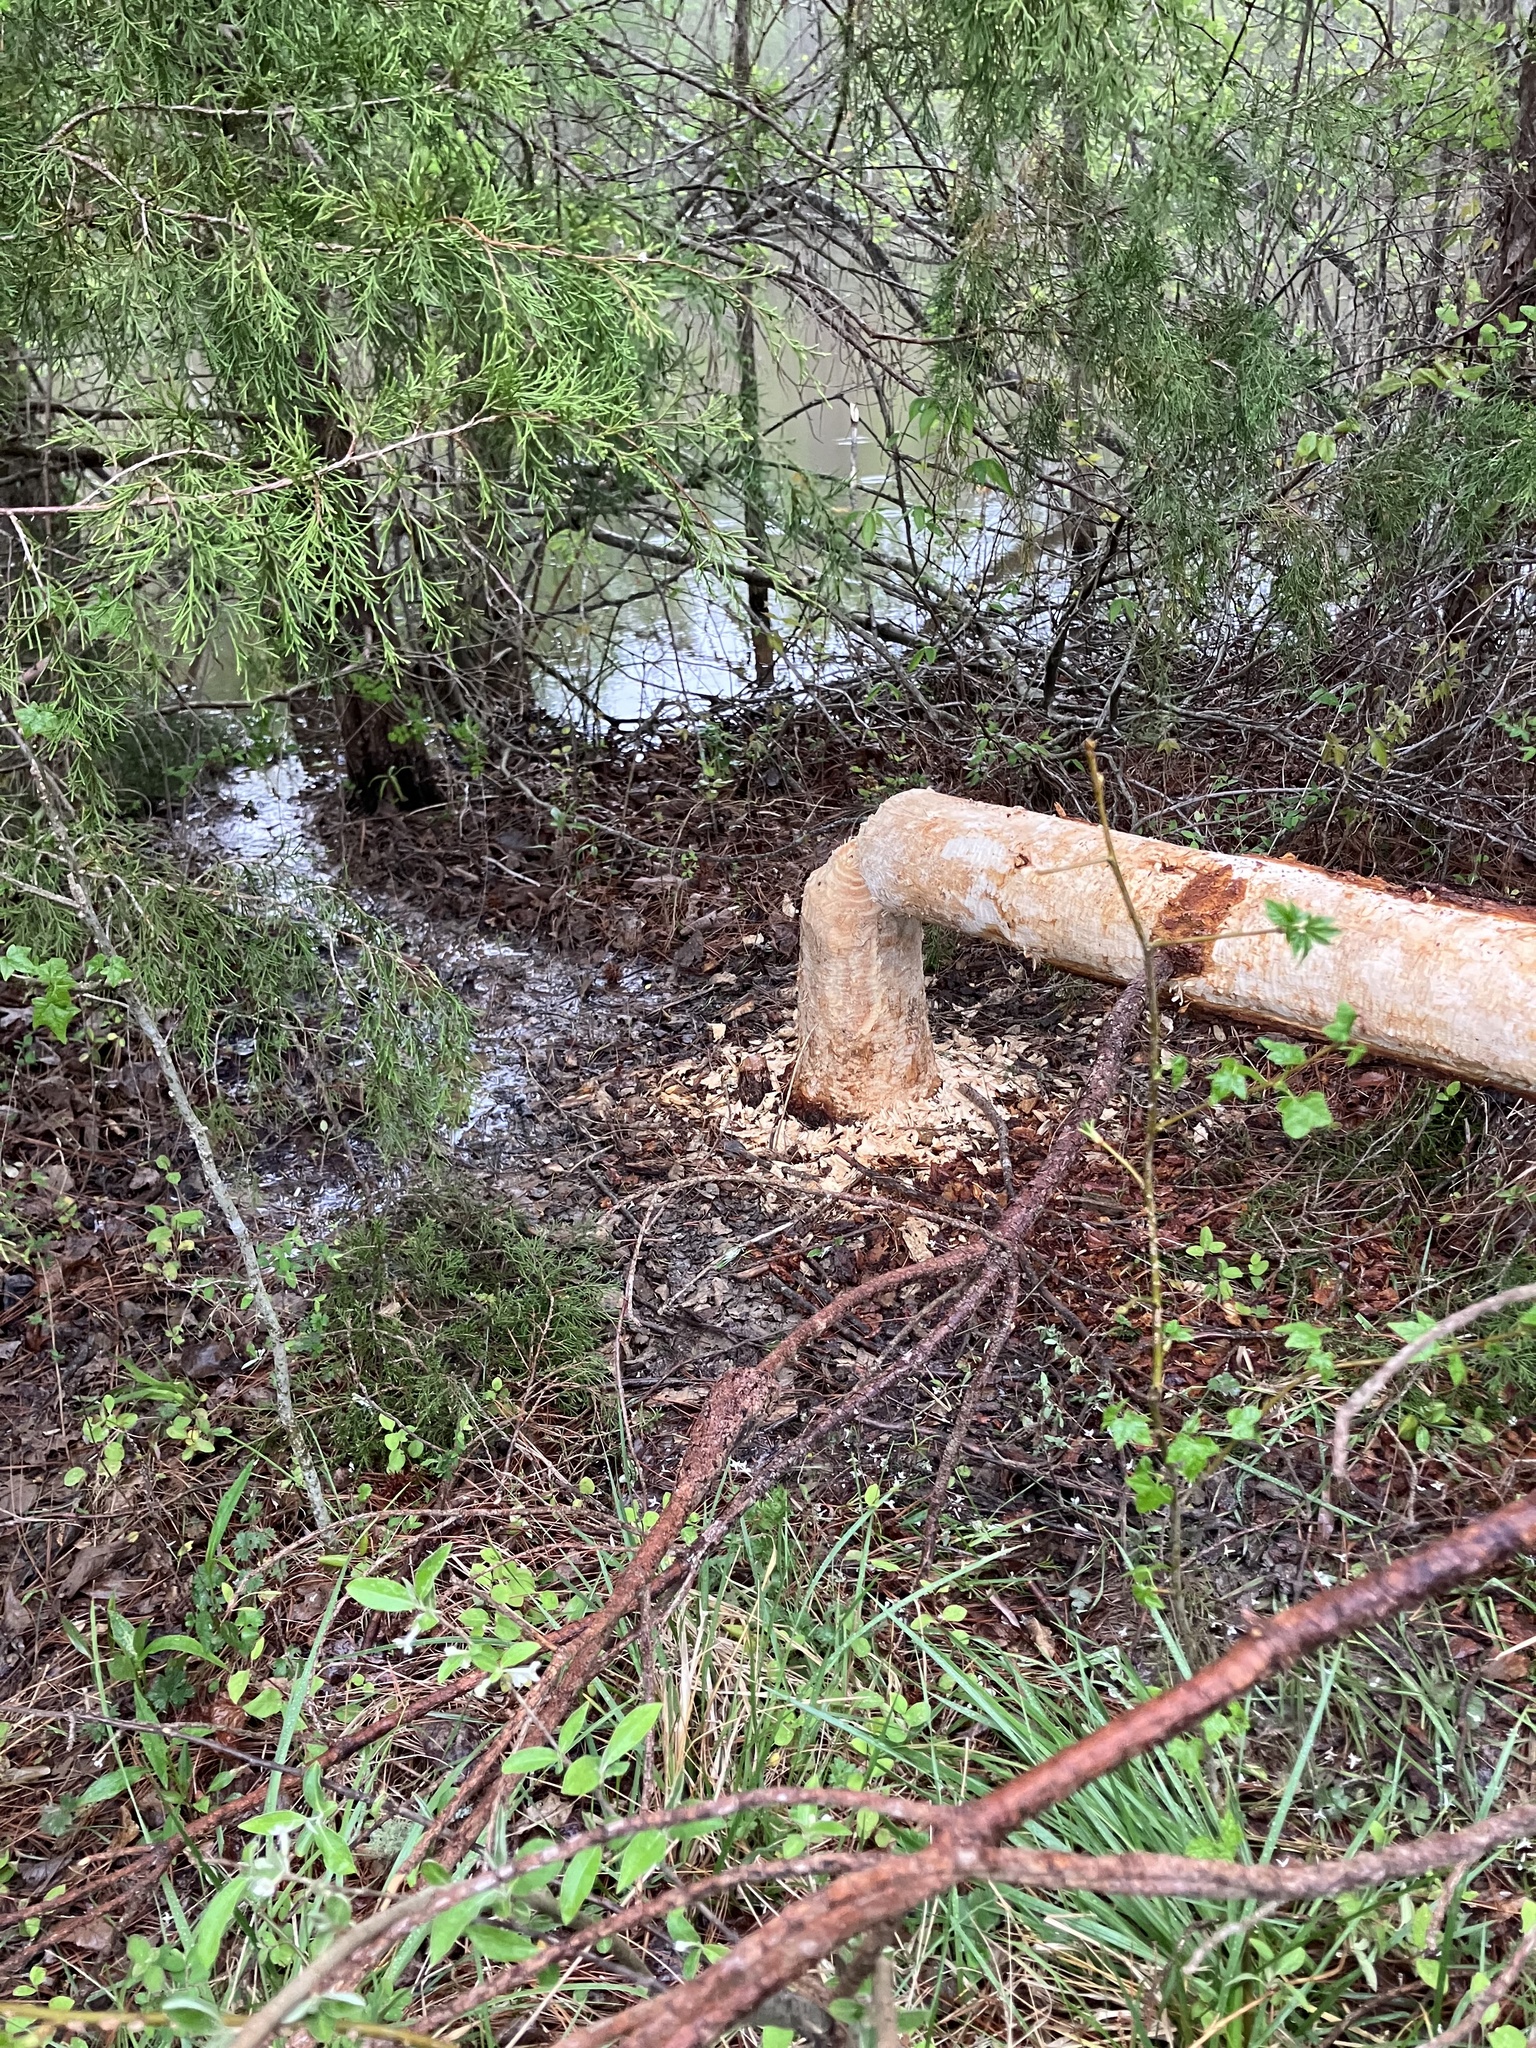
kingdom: Animalia
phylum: Chordata
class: Mammalia
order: Rodentia
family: Castoridae
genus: Castor
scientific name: Castor canadensis
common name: American beaver
